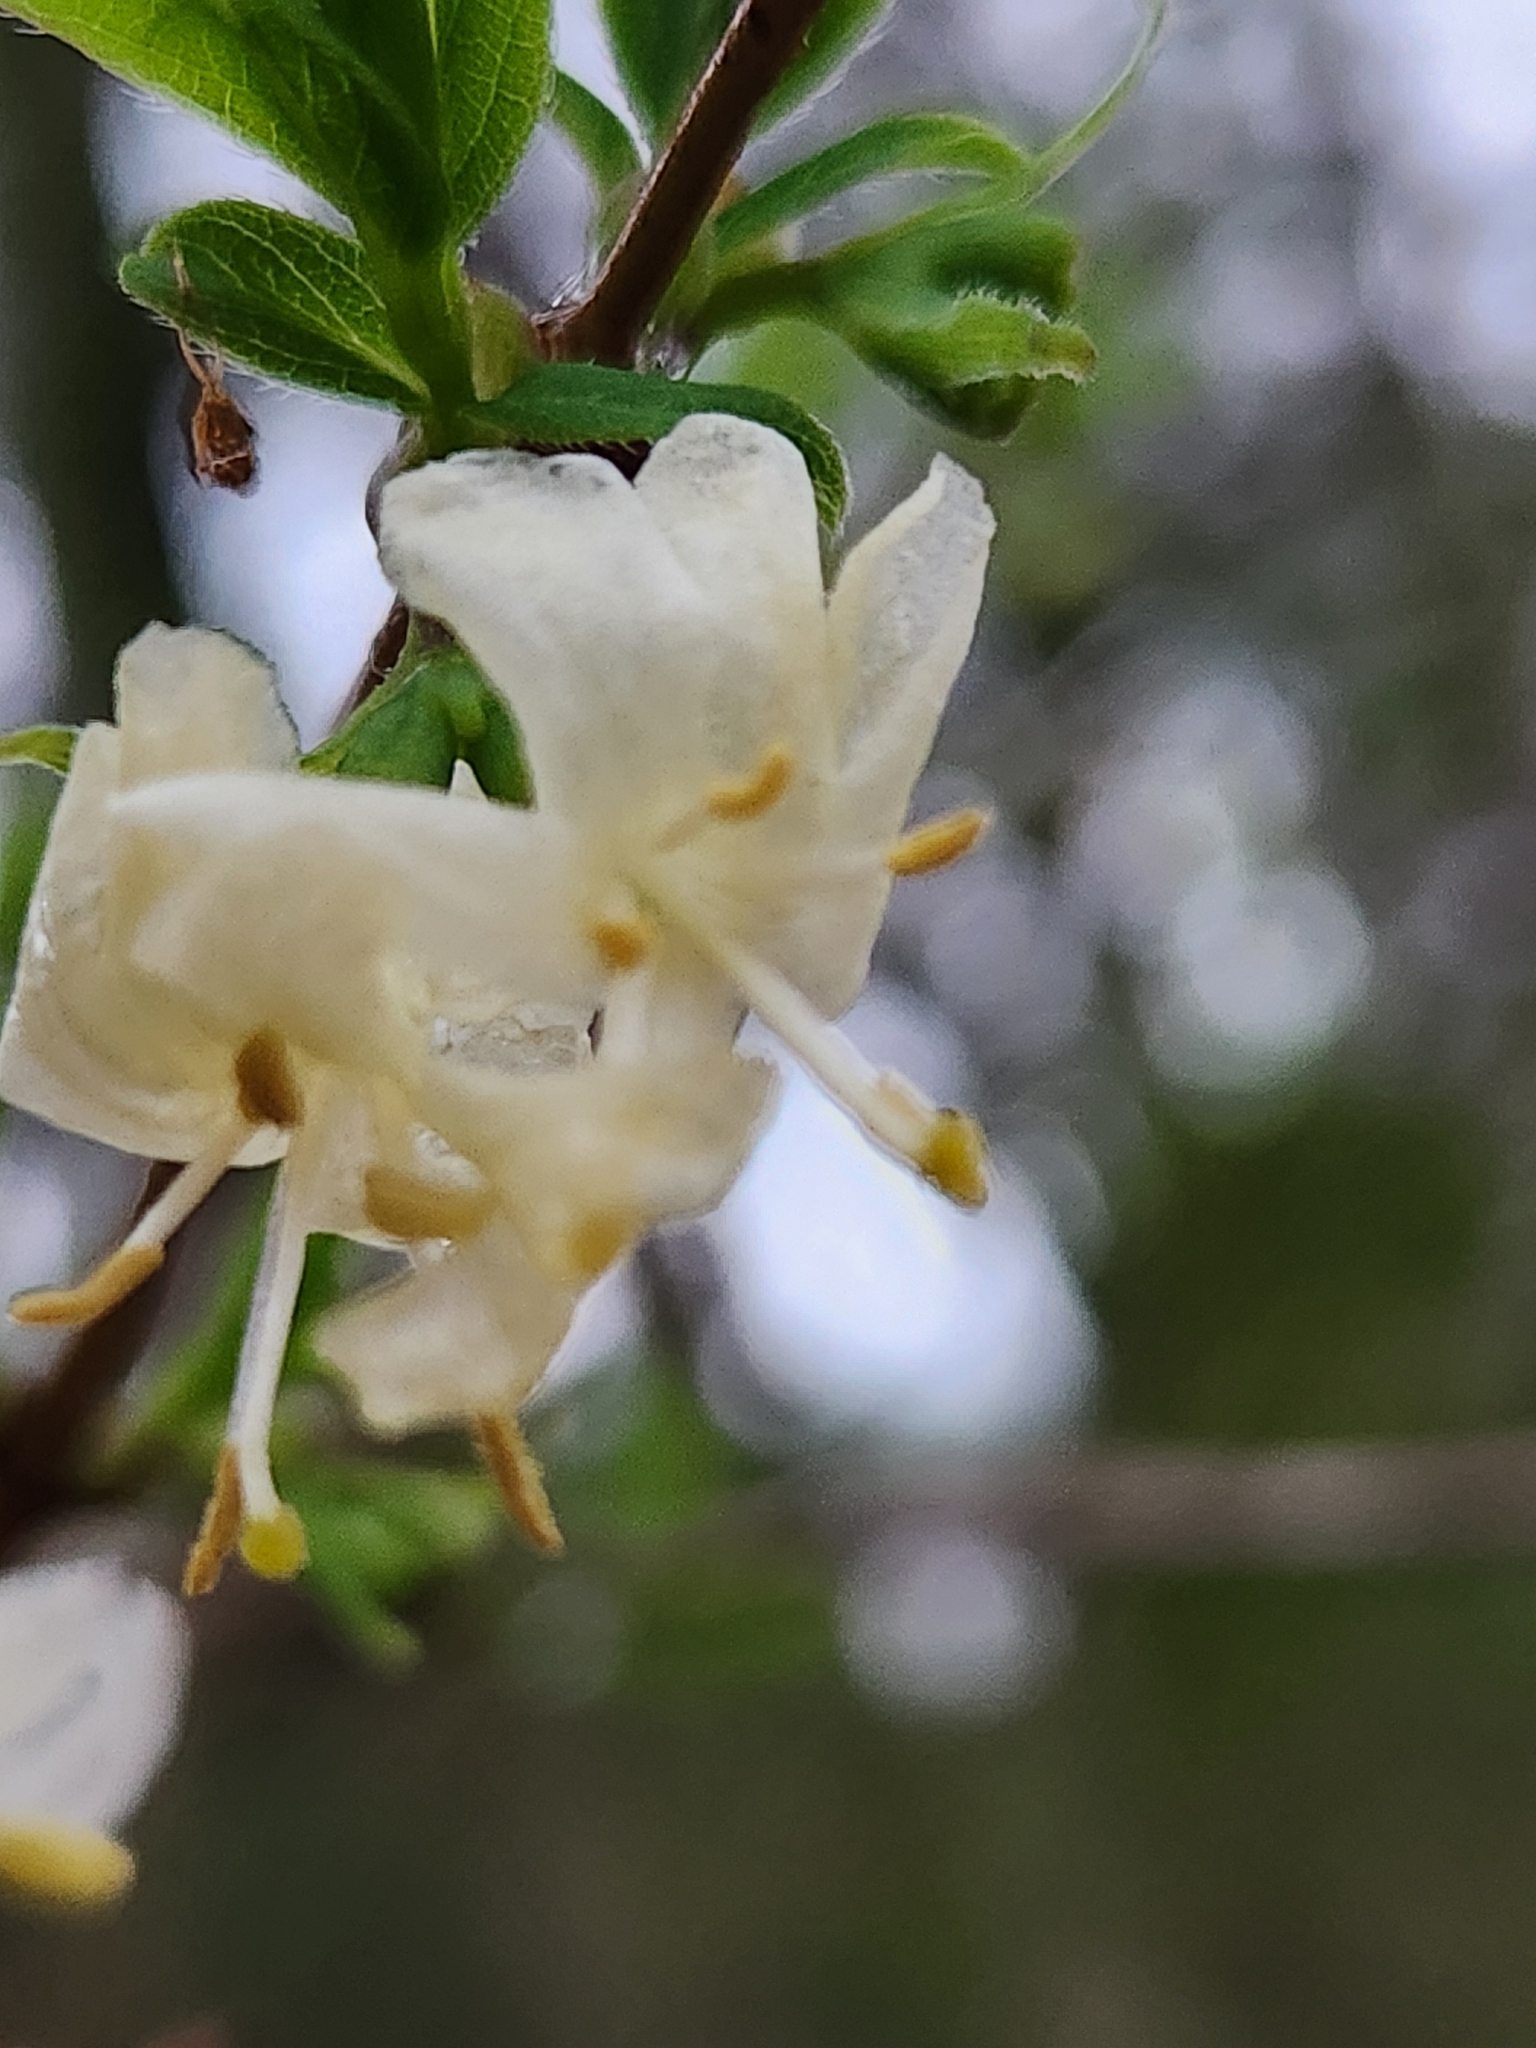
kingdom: Plantae
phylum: Tracheophyta
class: Magnoliopsida
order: Dipsacales
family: Caprifoliaceae
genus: Lonicera
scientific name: Lonicera fragrantissima
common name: Fragrant honeysuckle
